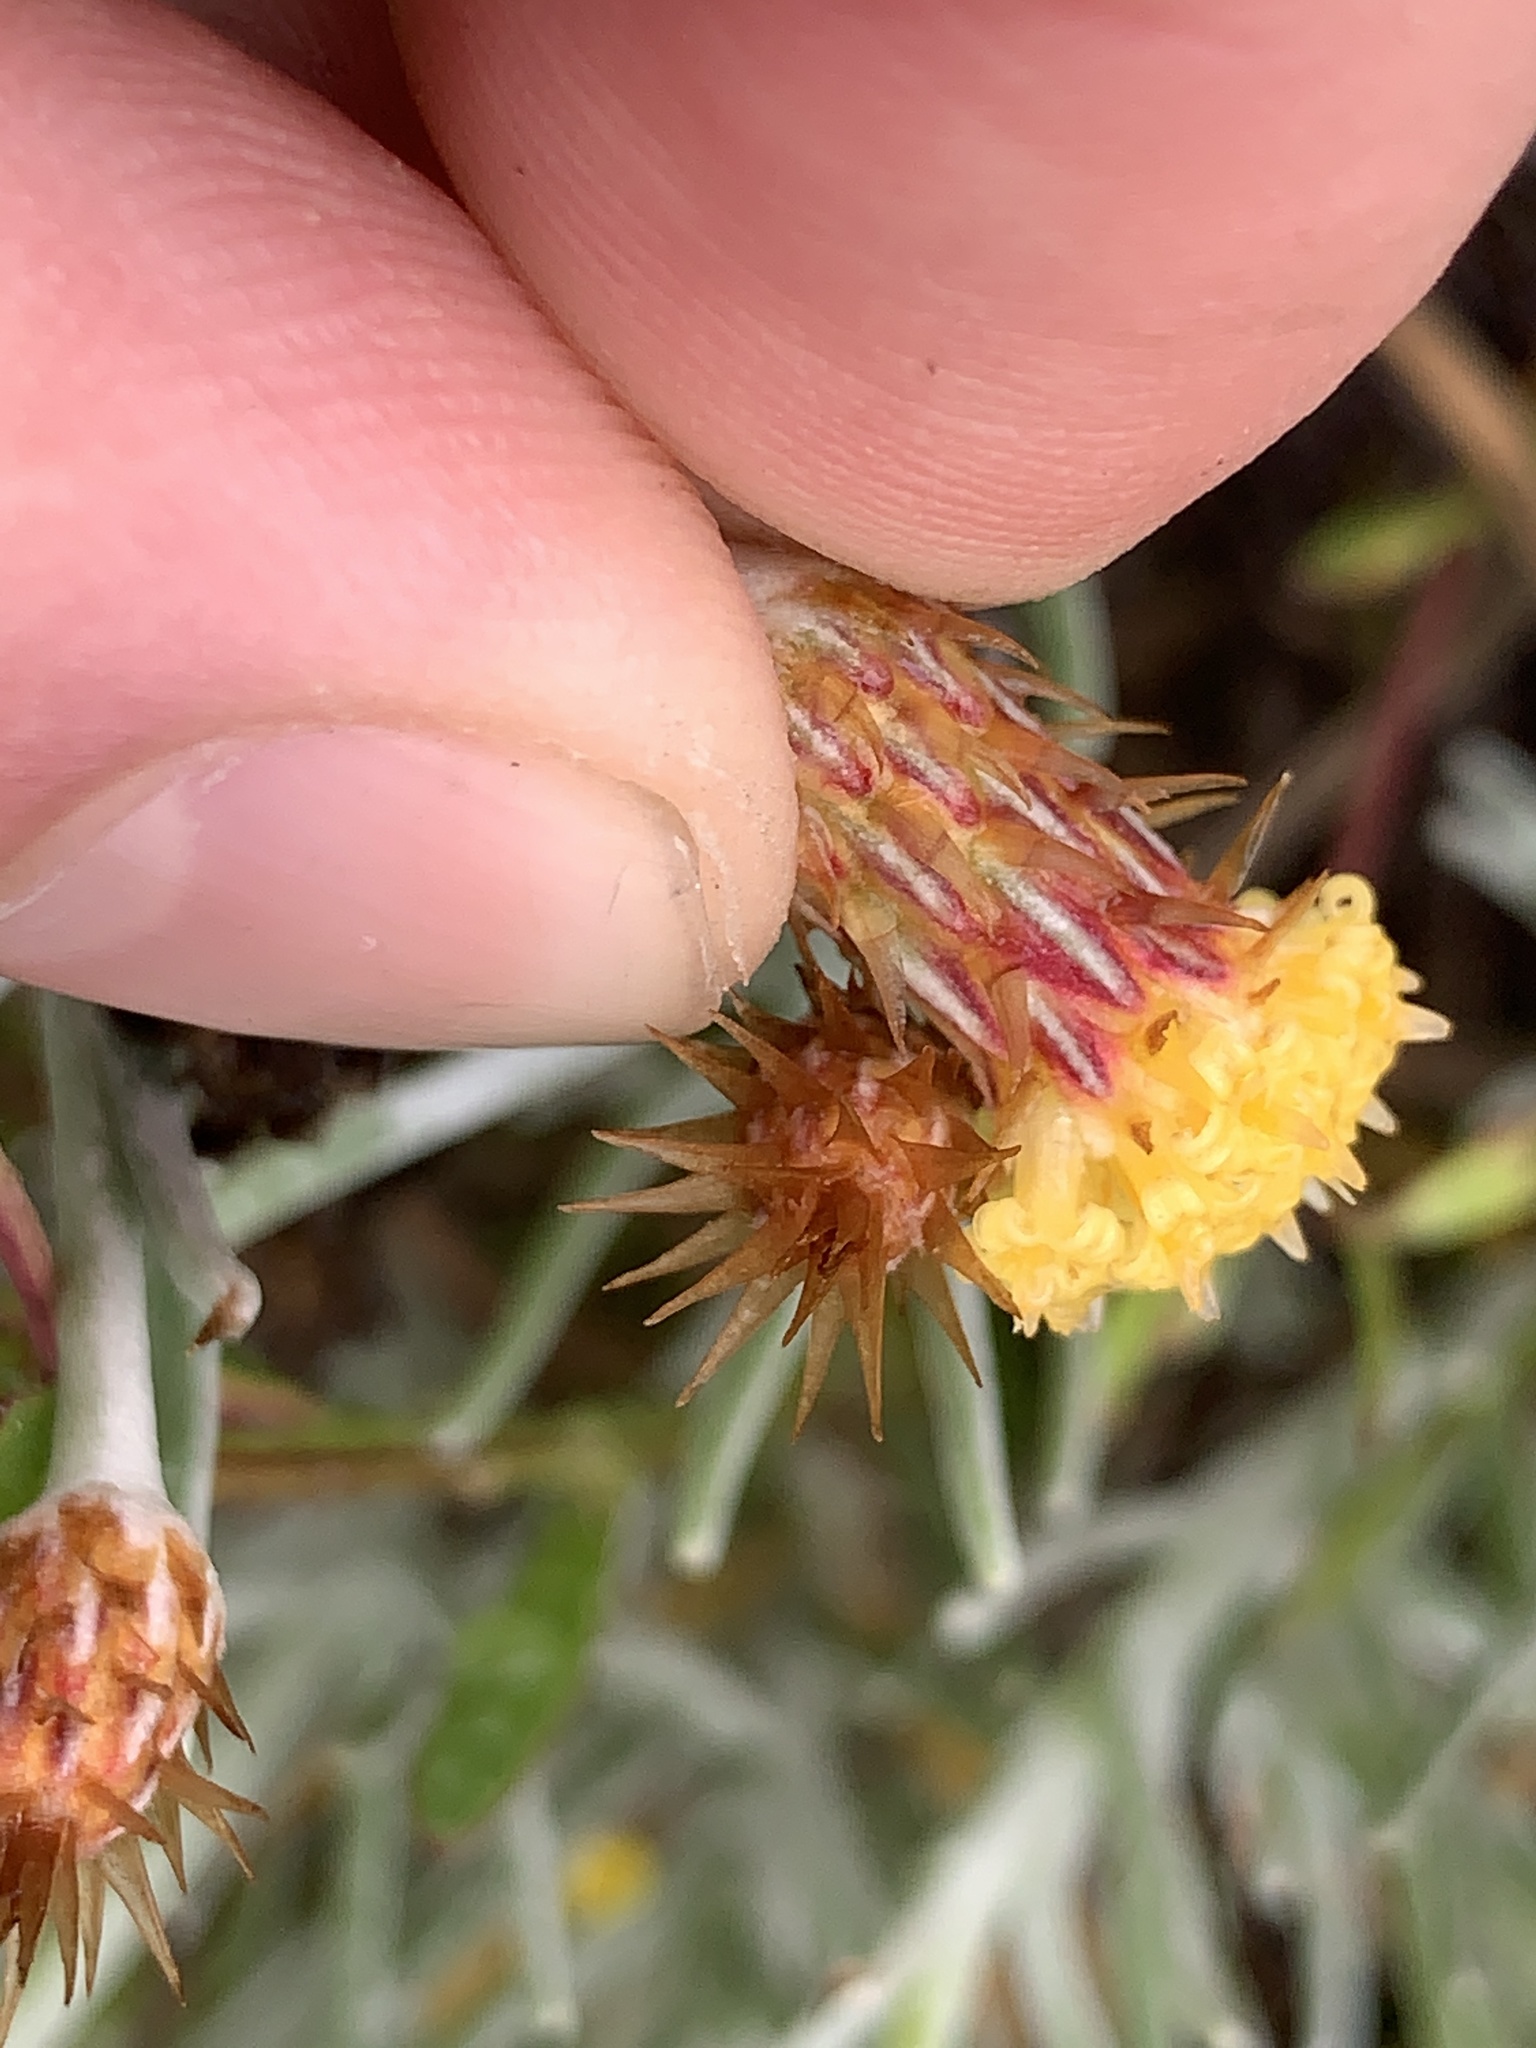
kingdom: Plantae
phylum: Tracheophyta
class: Magnoliopsida
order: Asterales
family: Asteraceae
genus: Syncarpha
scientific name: Syncarpha gnaphaloides
